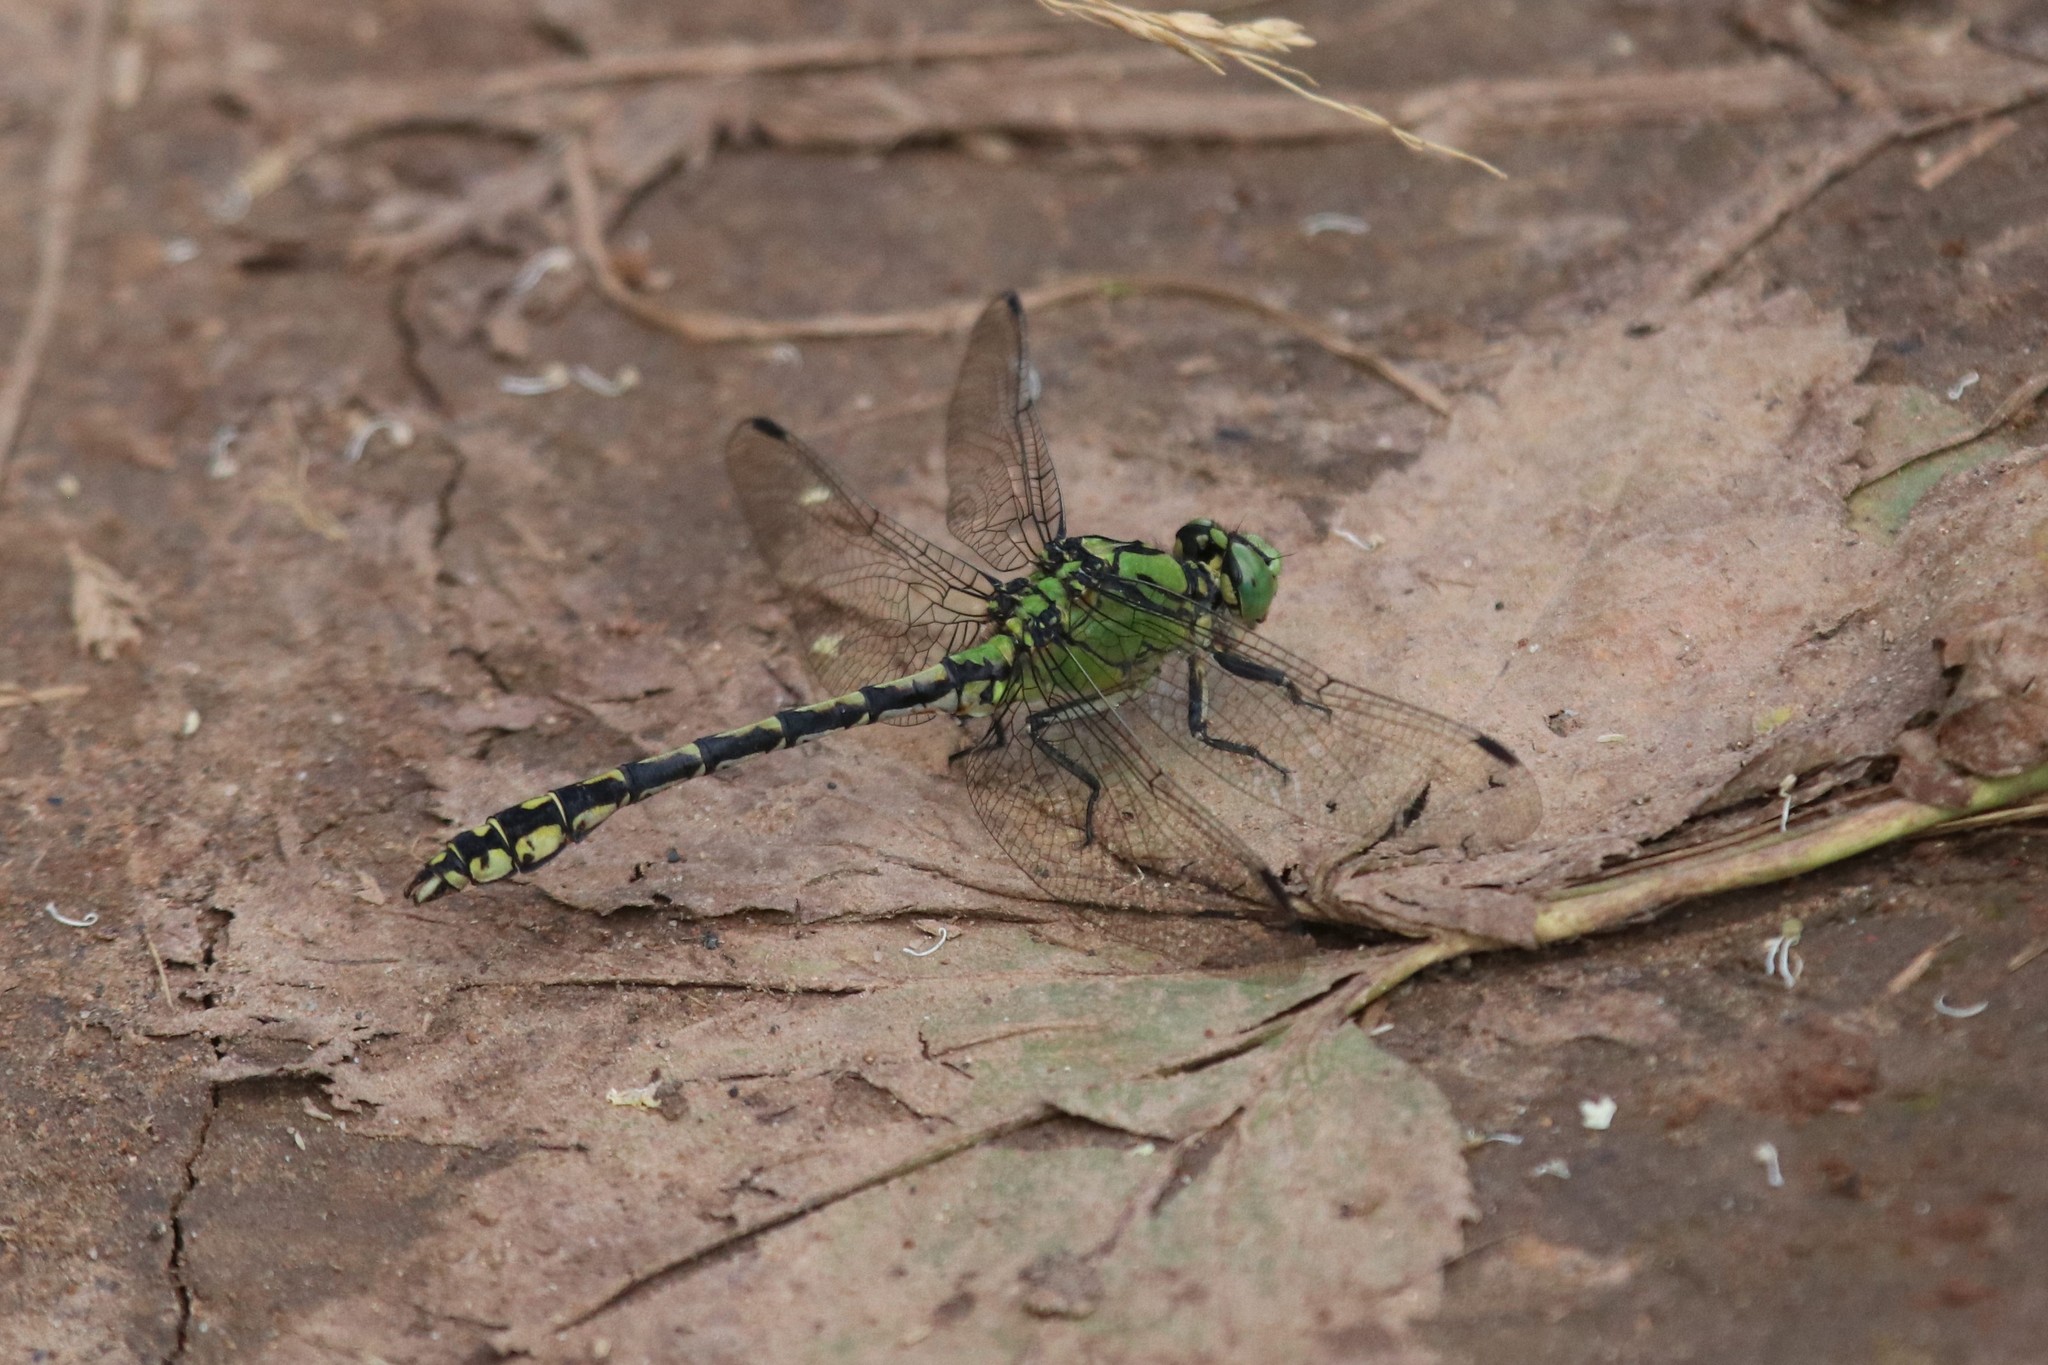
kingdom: Animalia
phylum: Arthropoda
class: Insecta
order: Odonata
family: Gomphidae
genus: Ophiogomphus
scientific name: Ophiogomphus cecilia
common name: Green snaketail
